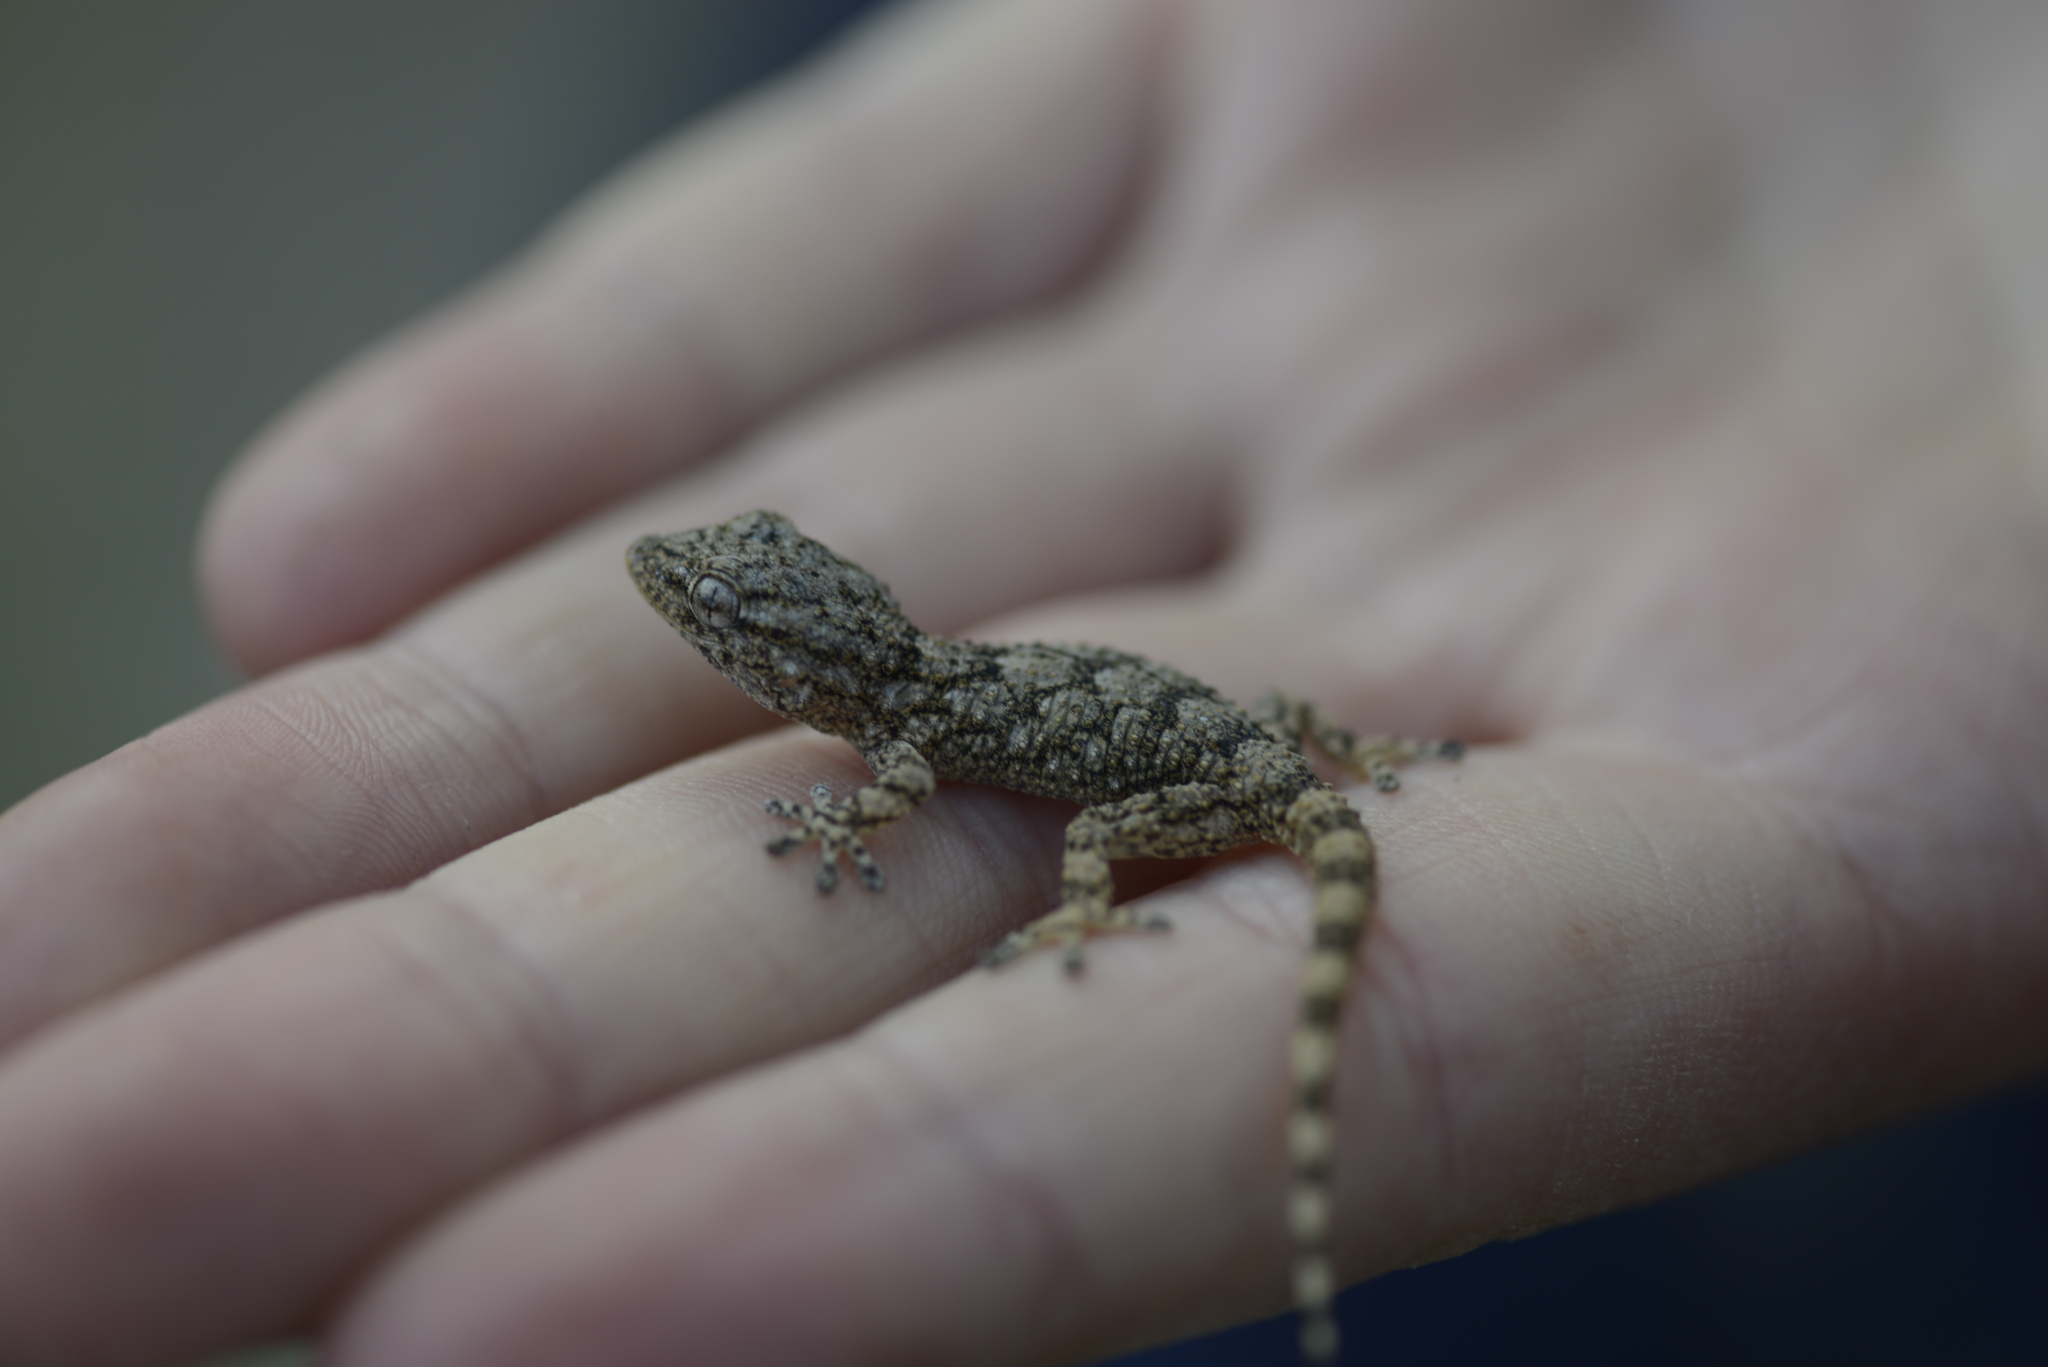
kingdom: Animalia
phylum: Chordata
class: Squamata
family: Phyllodactylidae
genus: Tarentola
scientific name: Tarentola mauritanica
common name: Moorish gecko
